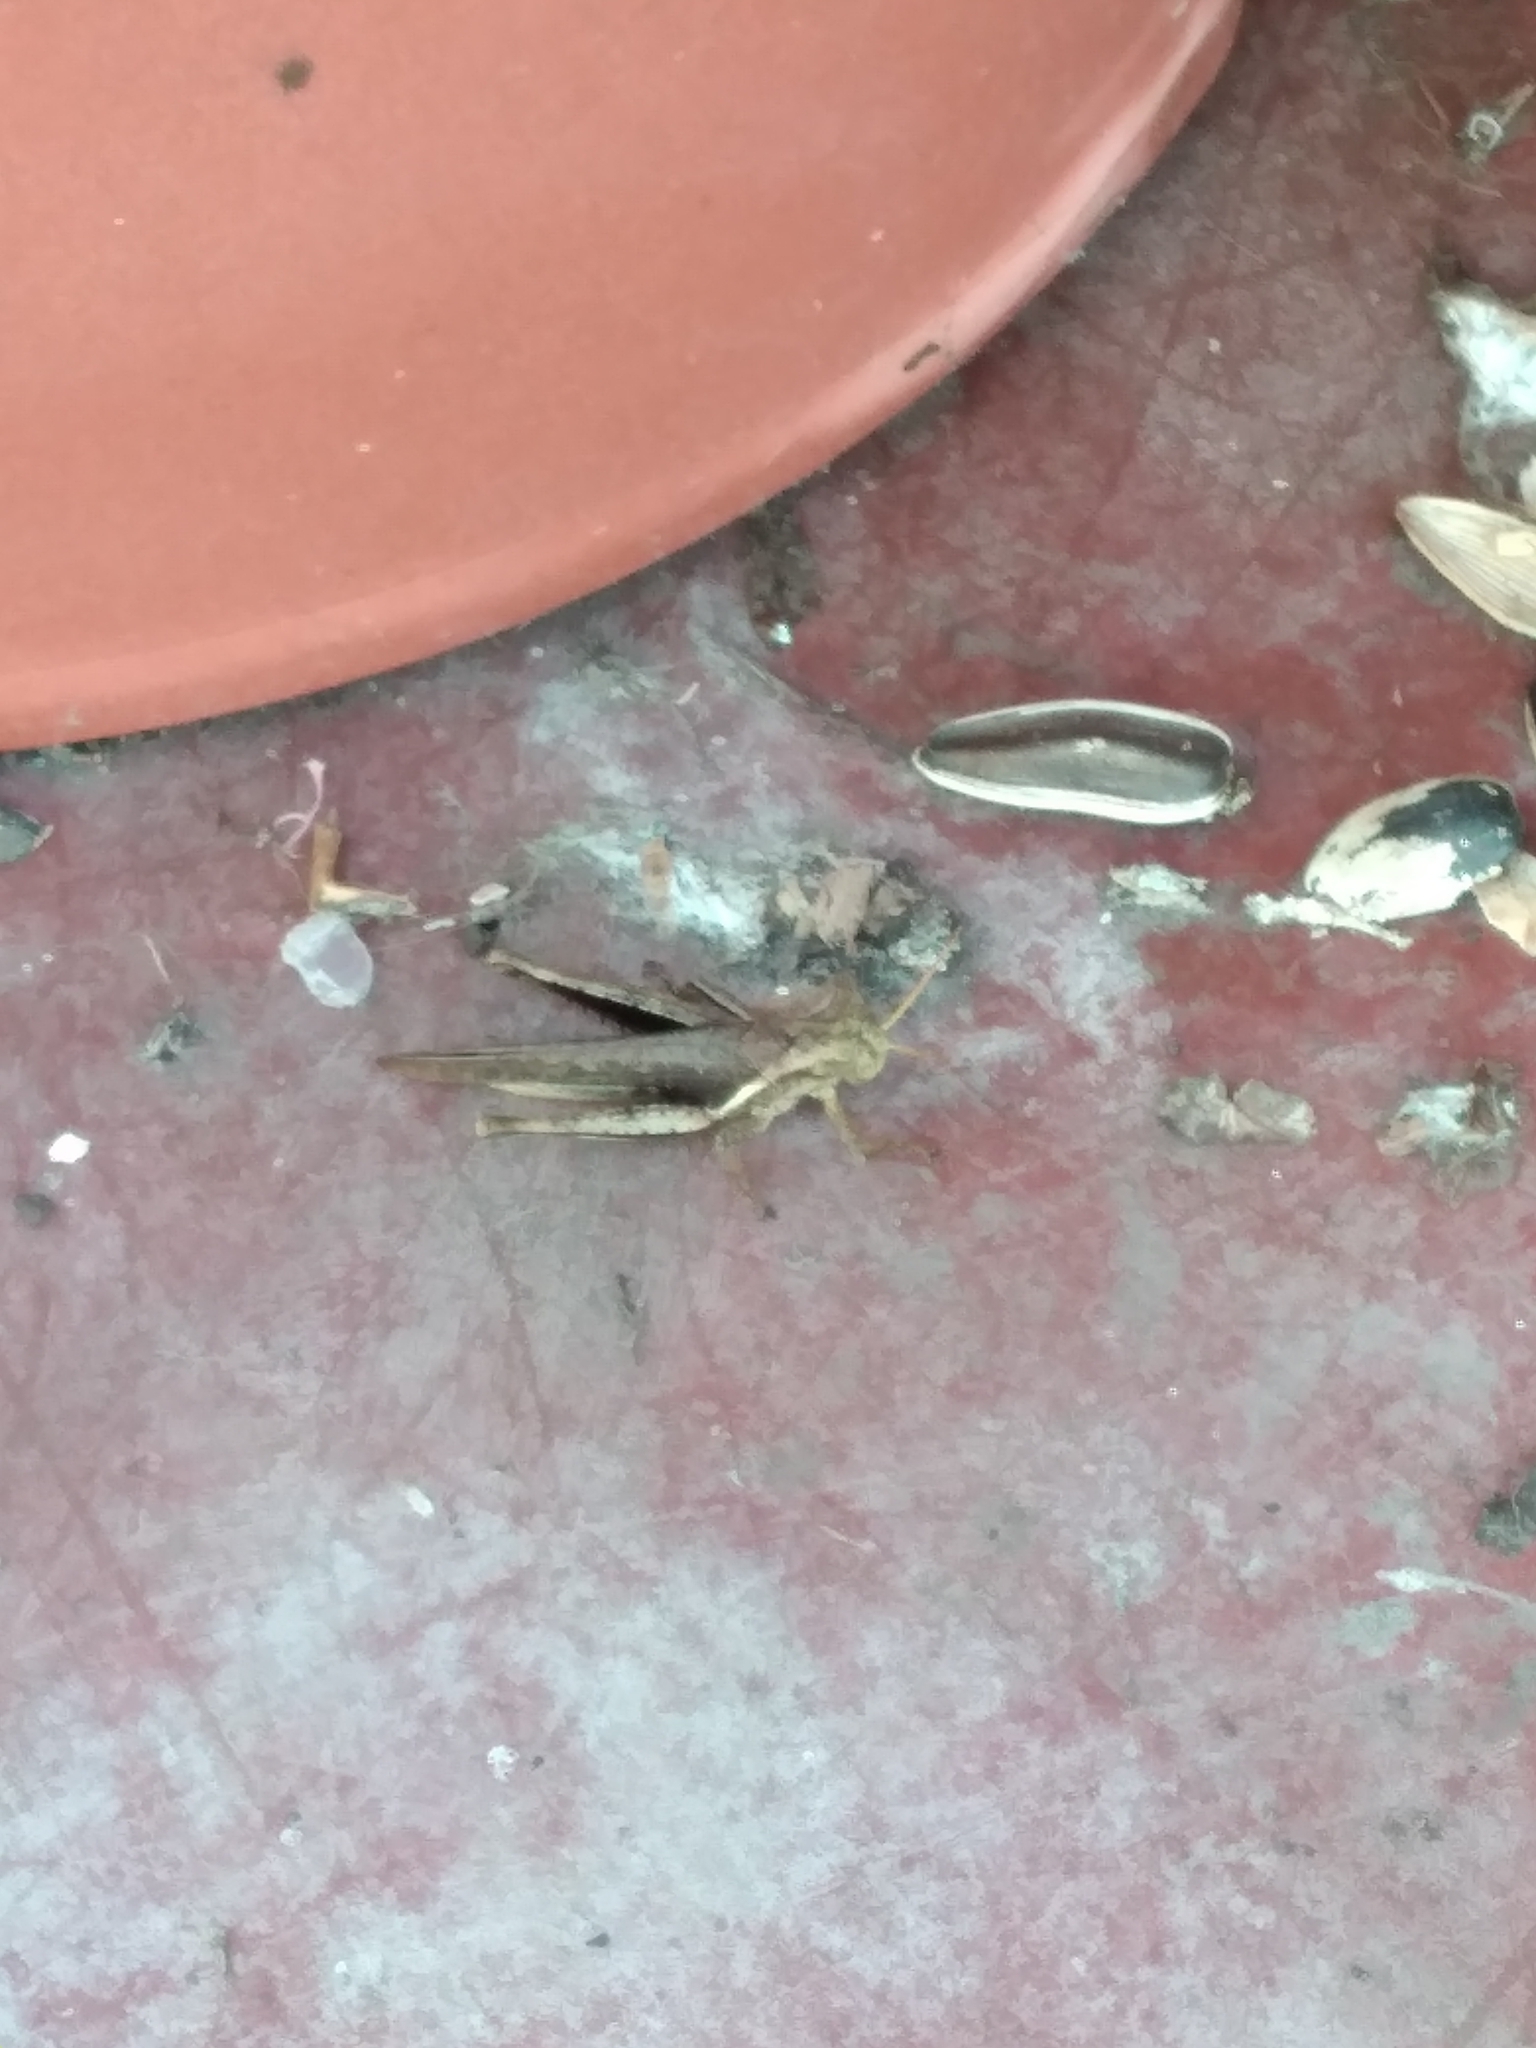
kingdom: Animalia
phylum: Arthropoda
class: Insecta
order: Orthoptera
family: Acrididae
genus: Abracris
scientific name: Abracris flavolineata
